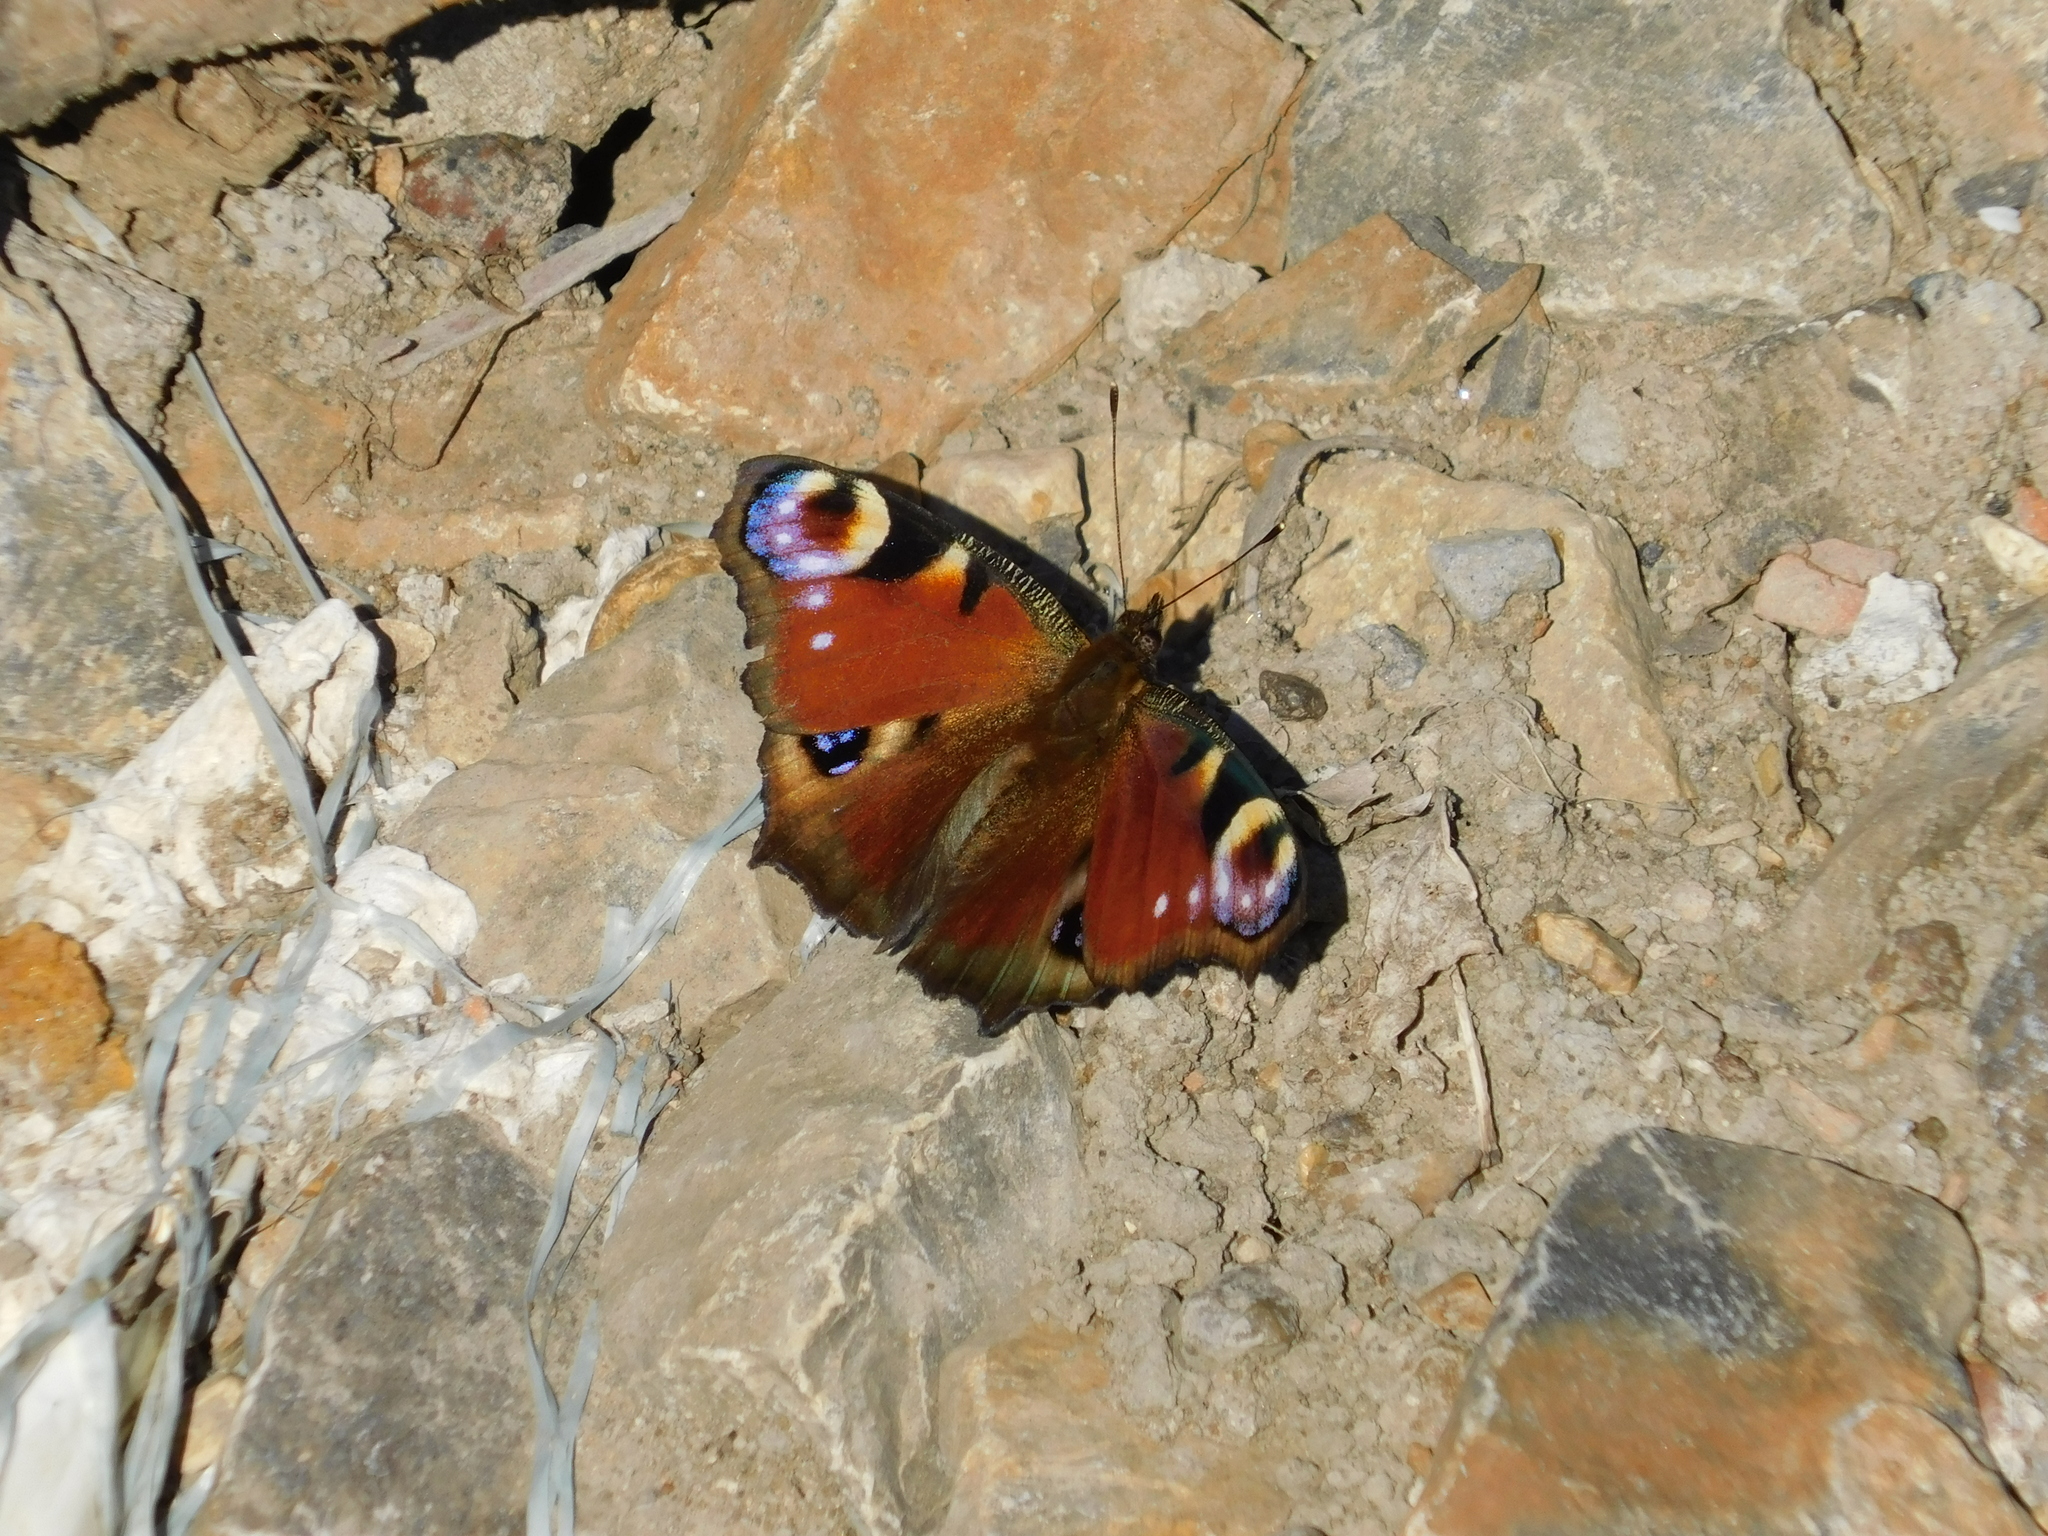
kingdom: Animalia
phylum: Arthropoda
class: Insecta
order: Lepidoptera
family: Nymphalidae
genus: Aglais
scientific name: Aglais io
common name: Peacock
